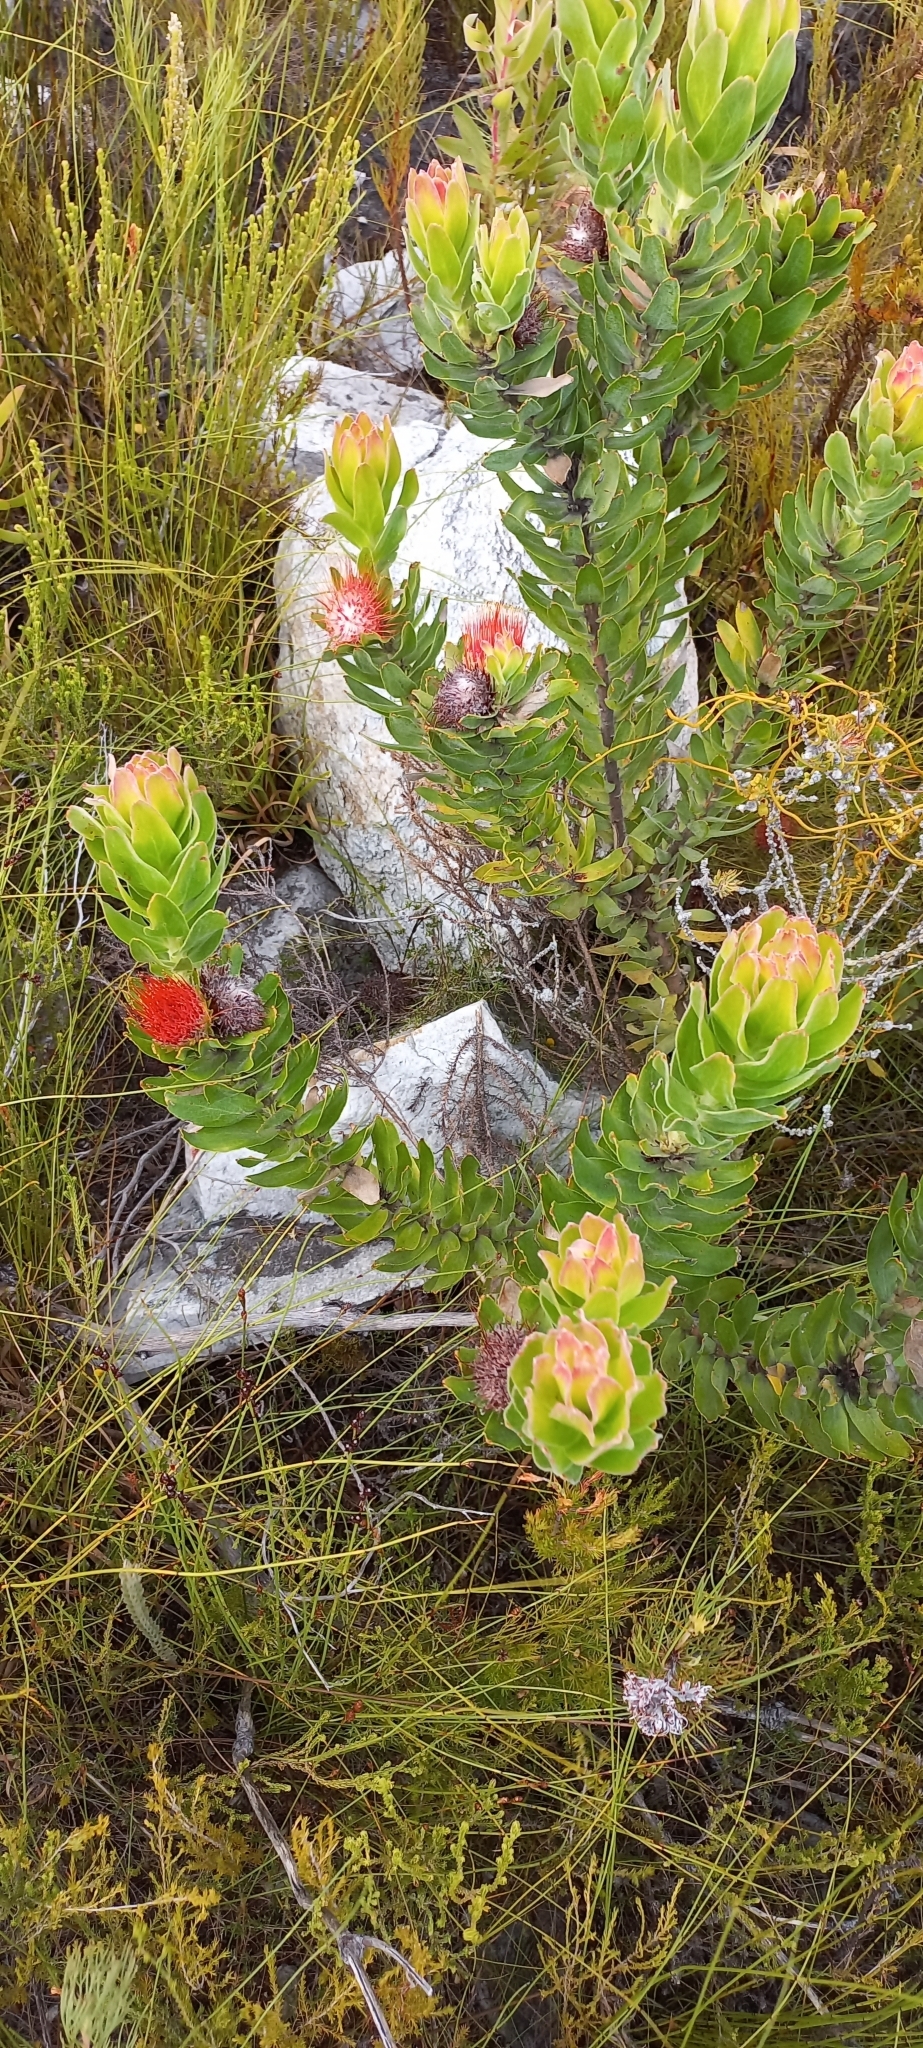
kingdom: Plantae
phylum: Tracheophyta
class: Magnoliopsida
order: Proteales
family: Proteaceae
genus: Leucospermum
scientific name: Leucospermum oleifolium
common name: Matches
